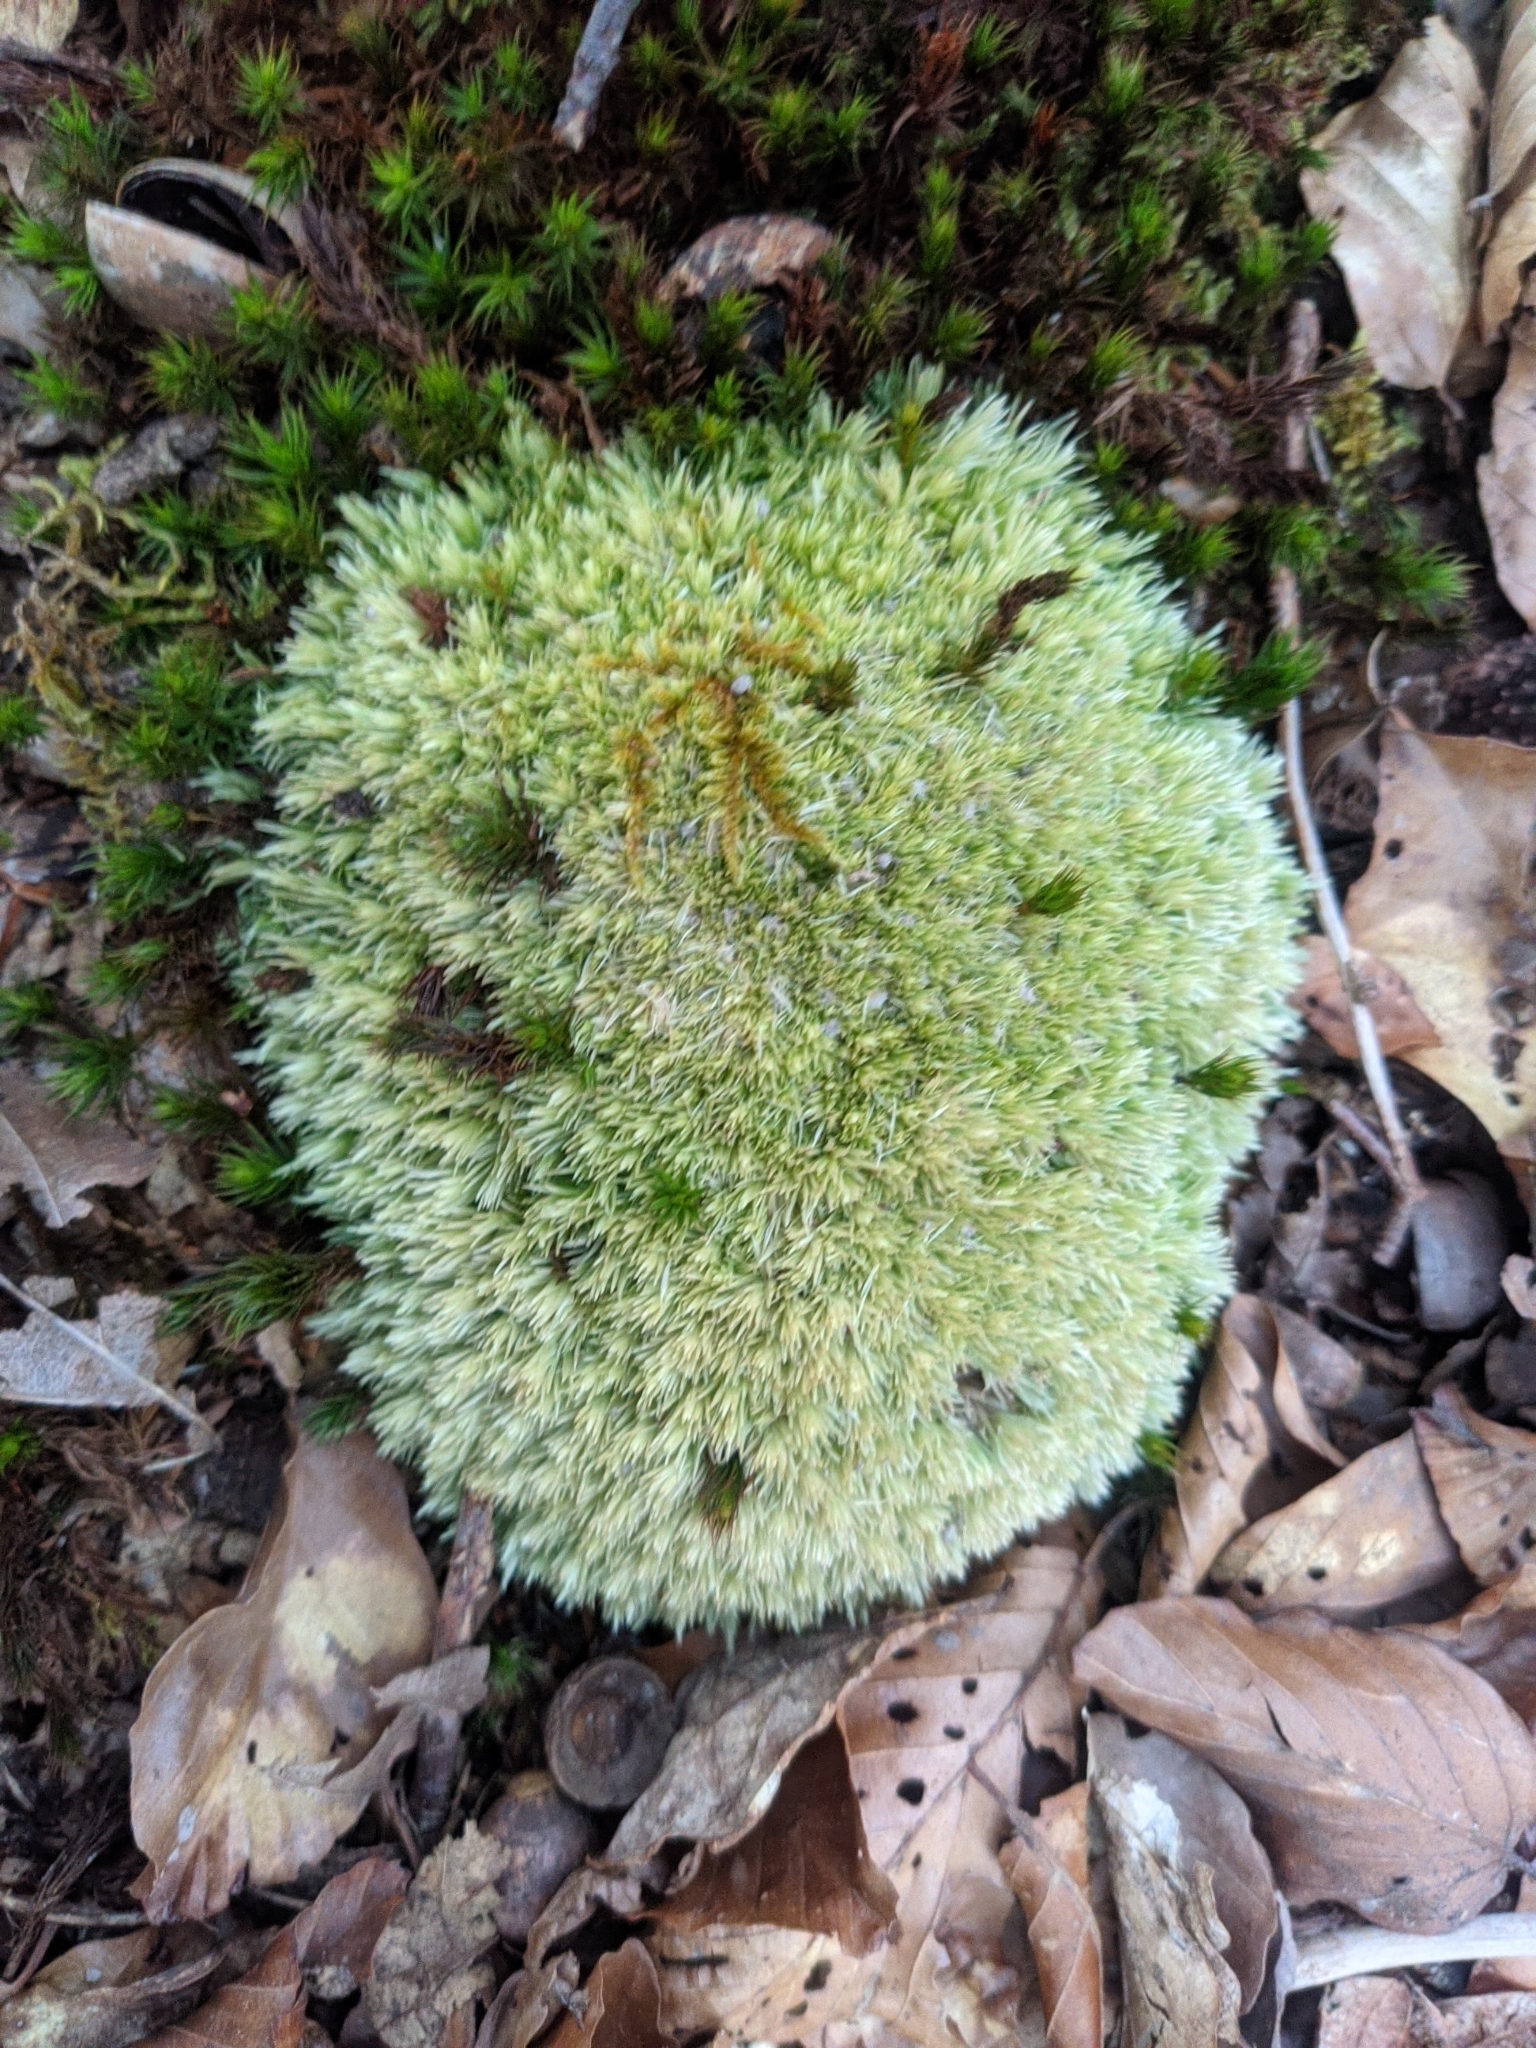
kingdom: Plantae
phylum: Bryophyta
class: Bryopsida
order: Dicranales
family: Leucobryaceae
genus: Leucobryum
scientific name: Leucobryum glaucum
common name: Large white-moss
